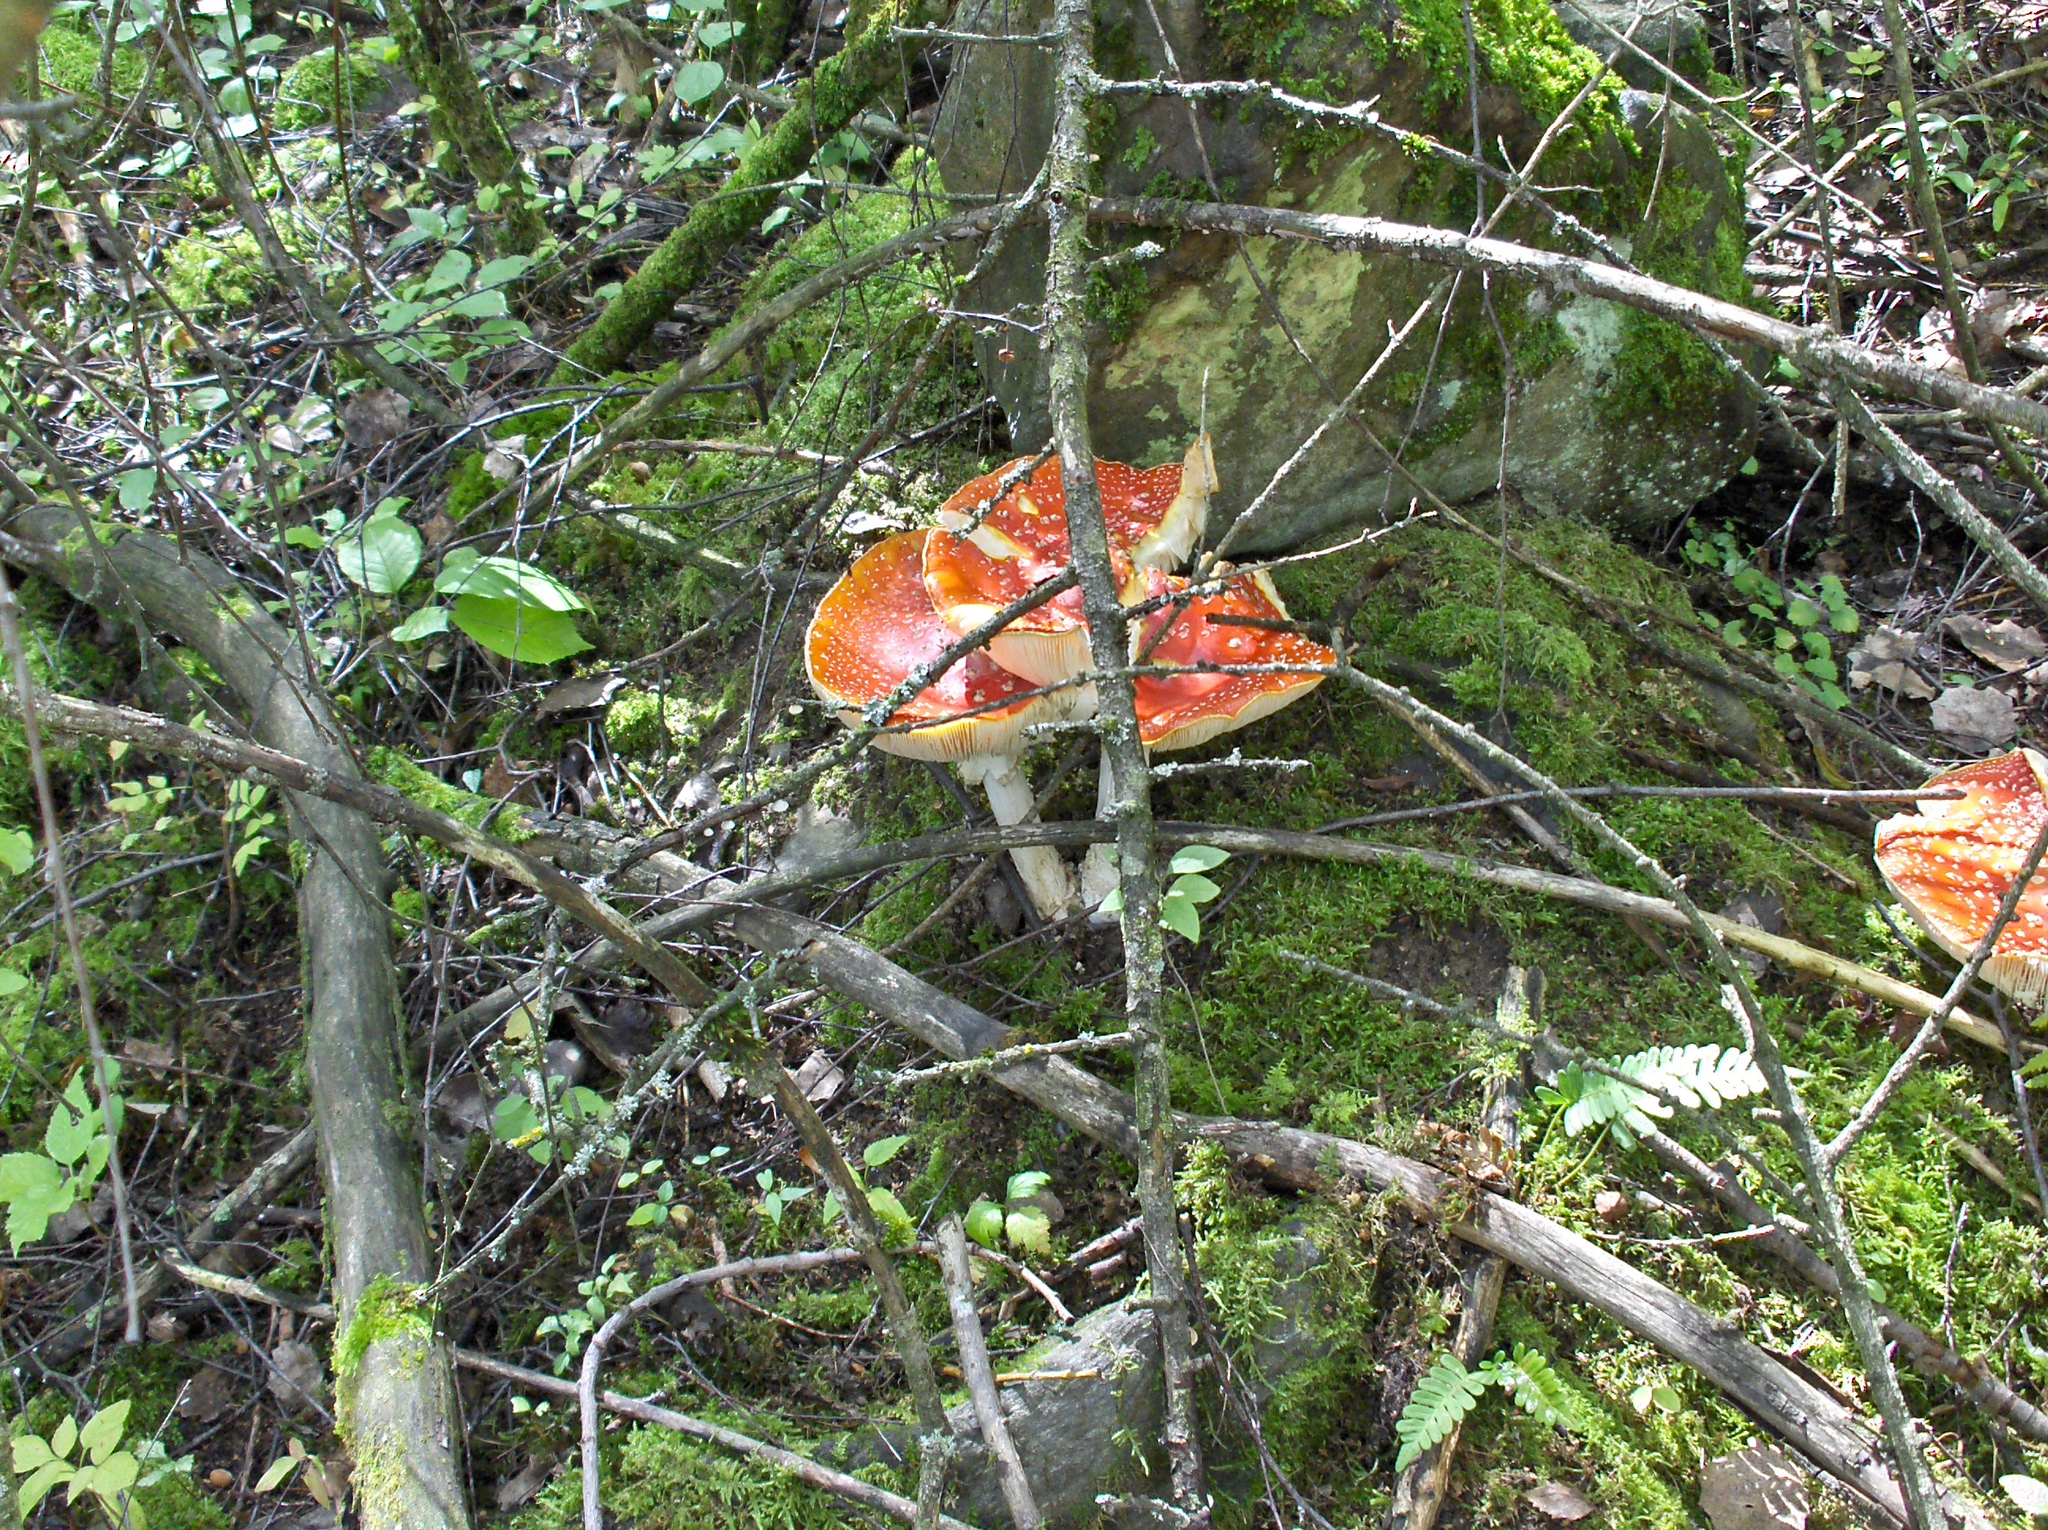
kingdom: Fungi
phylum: Basidiomycota
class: Agaricomycetes
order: Agaricales
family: Amanitaceae
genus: Amanita
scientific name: Amanita muscaria
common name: Fly agaric
